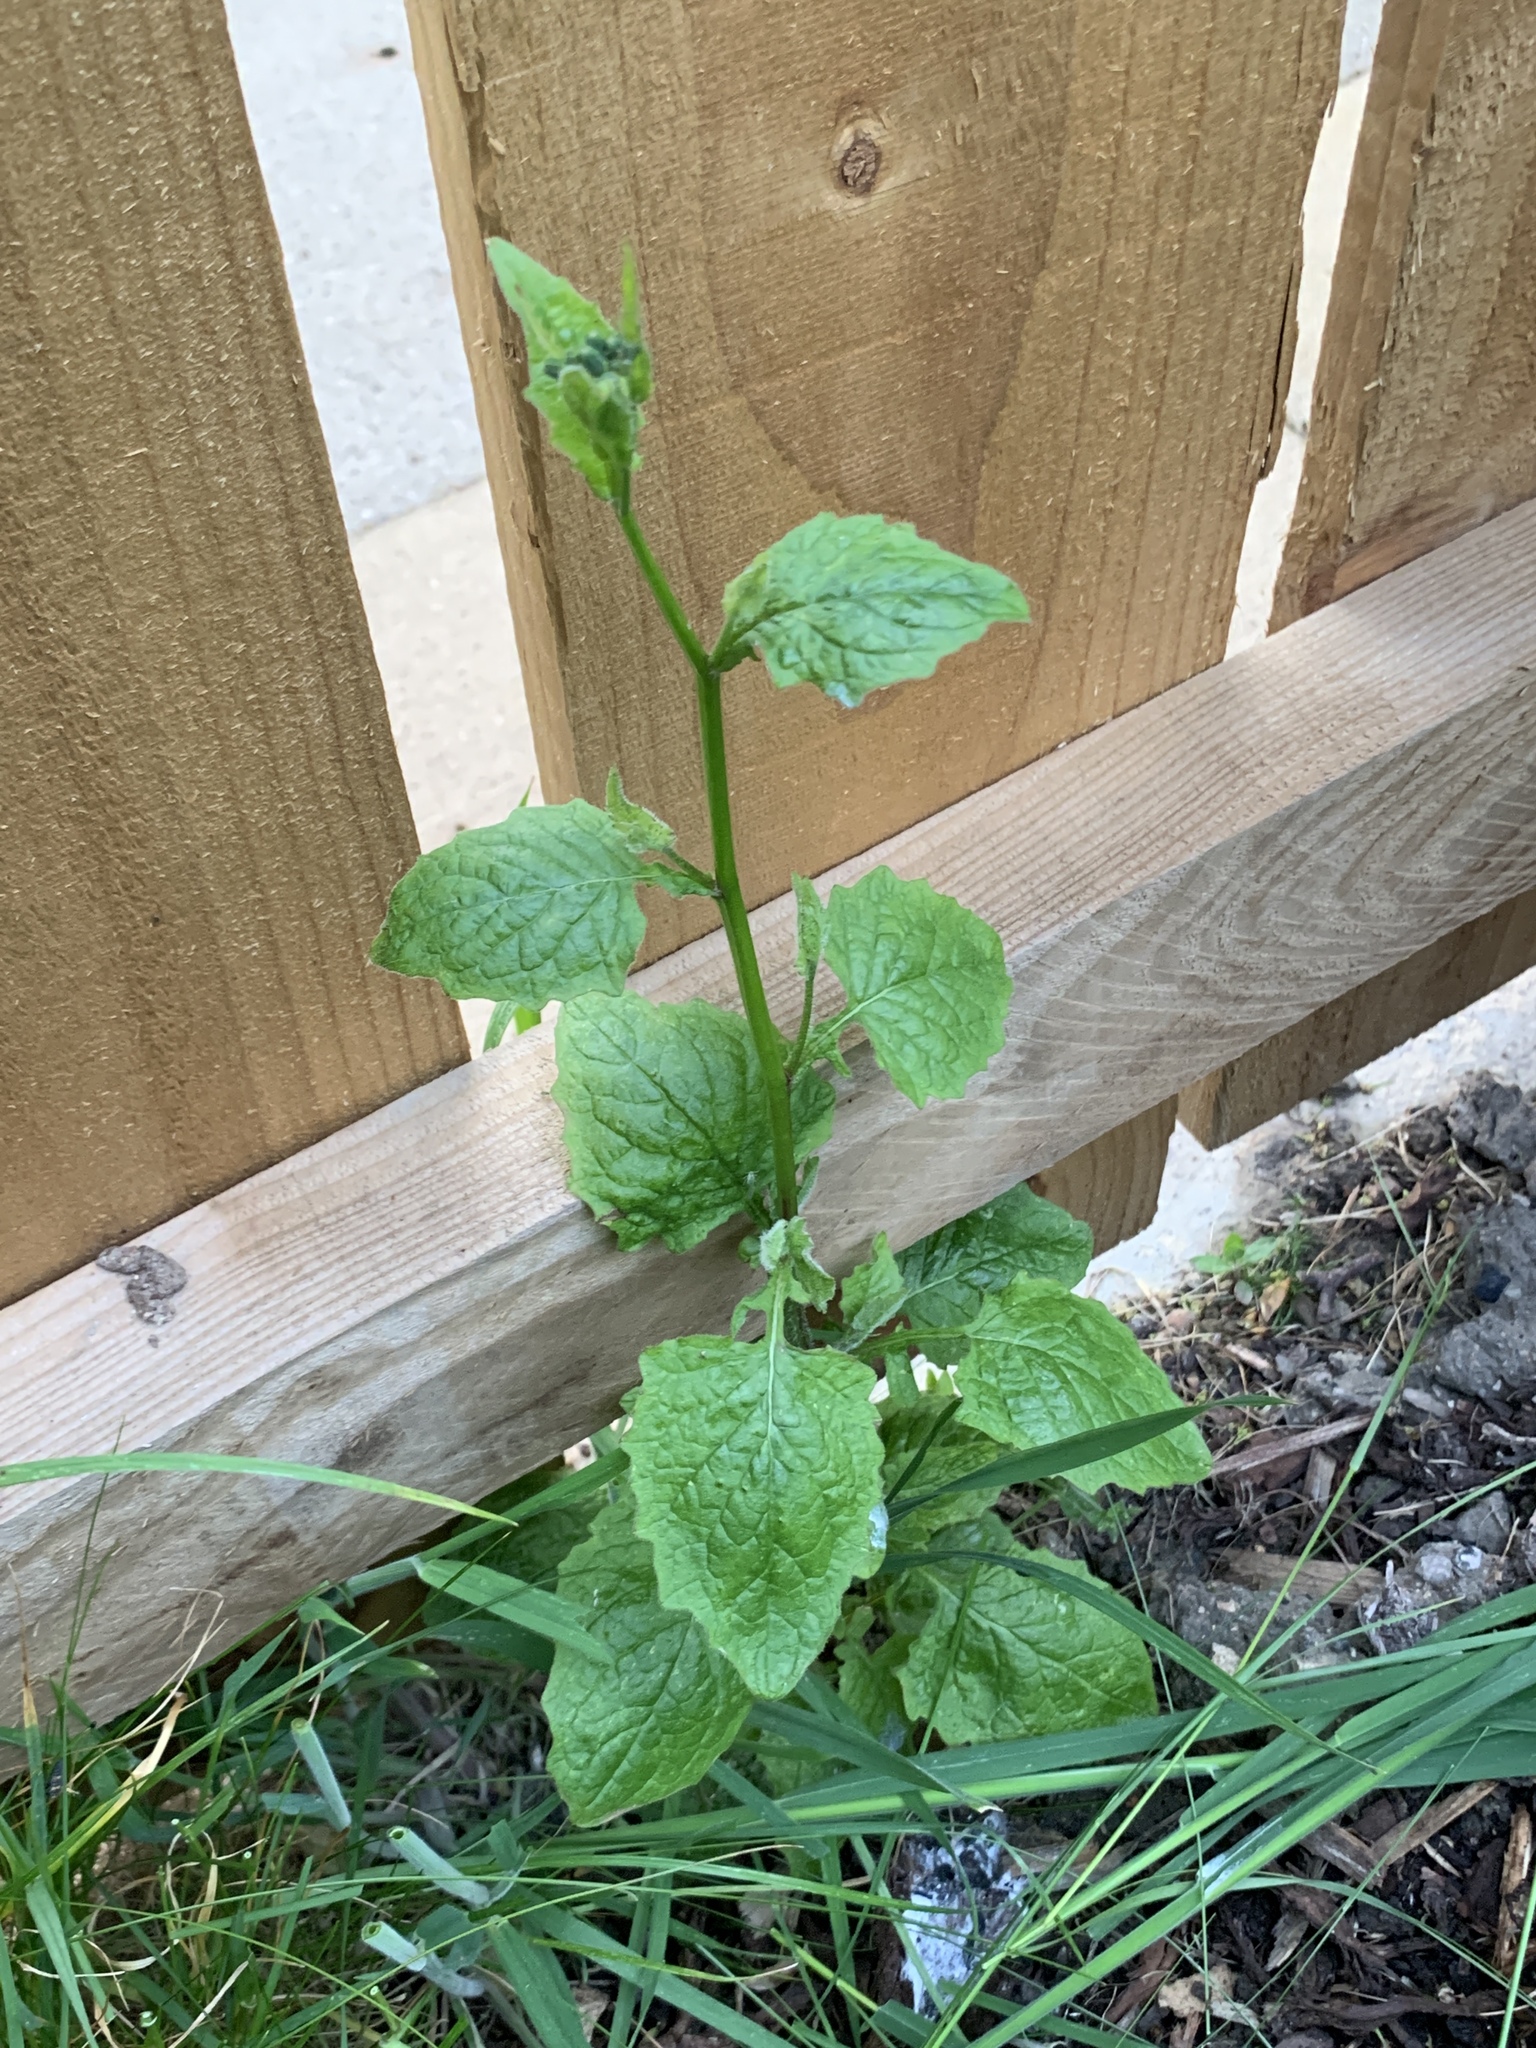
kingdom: Plantae
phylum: Tracheophyta
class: Magnoliopsida
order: Asterales
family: Asteraceae
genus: Lapsana
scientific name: Lapsana communis
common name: Nipplewort
